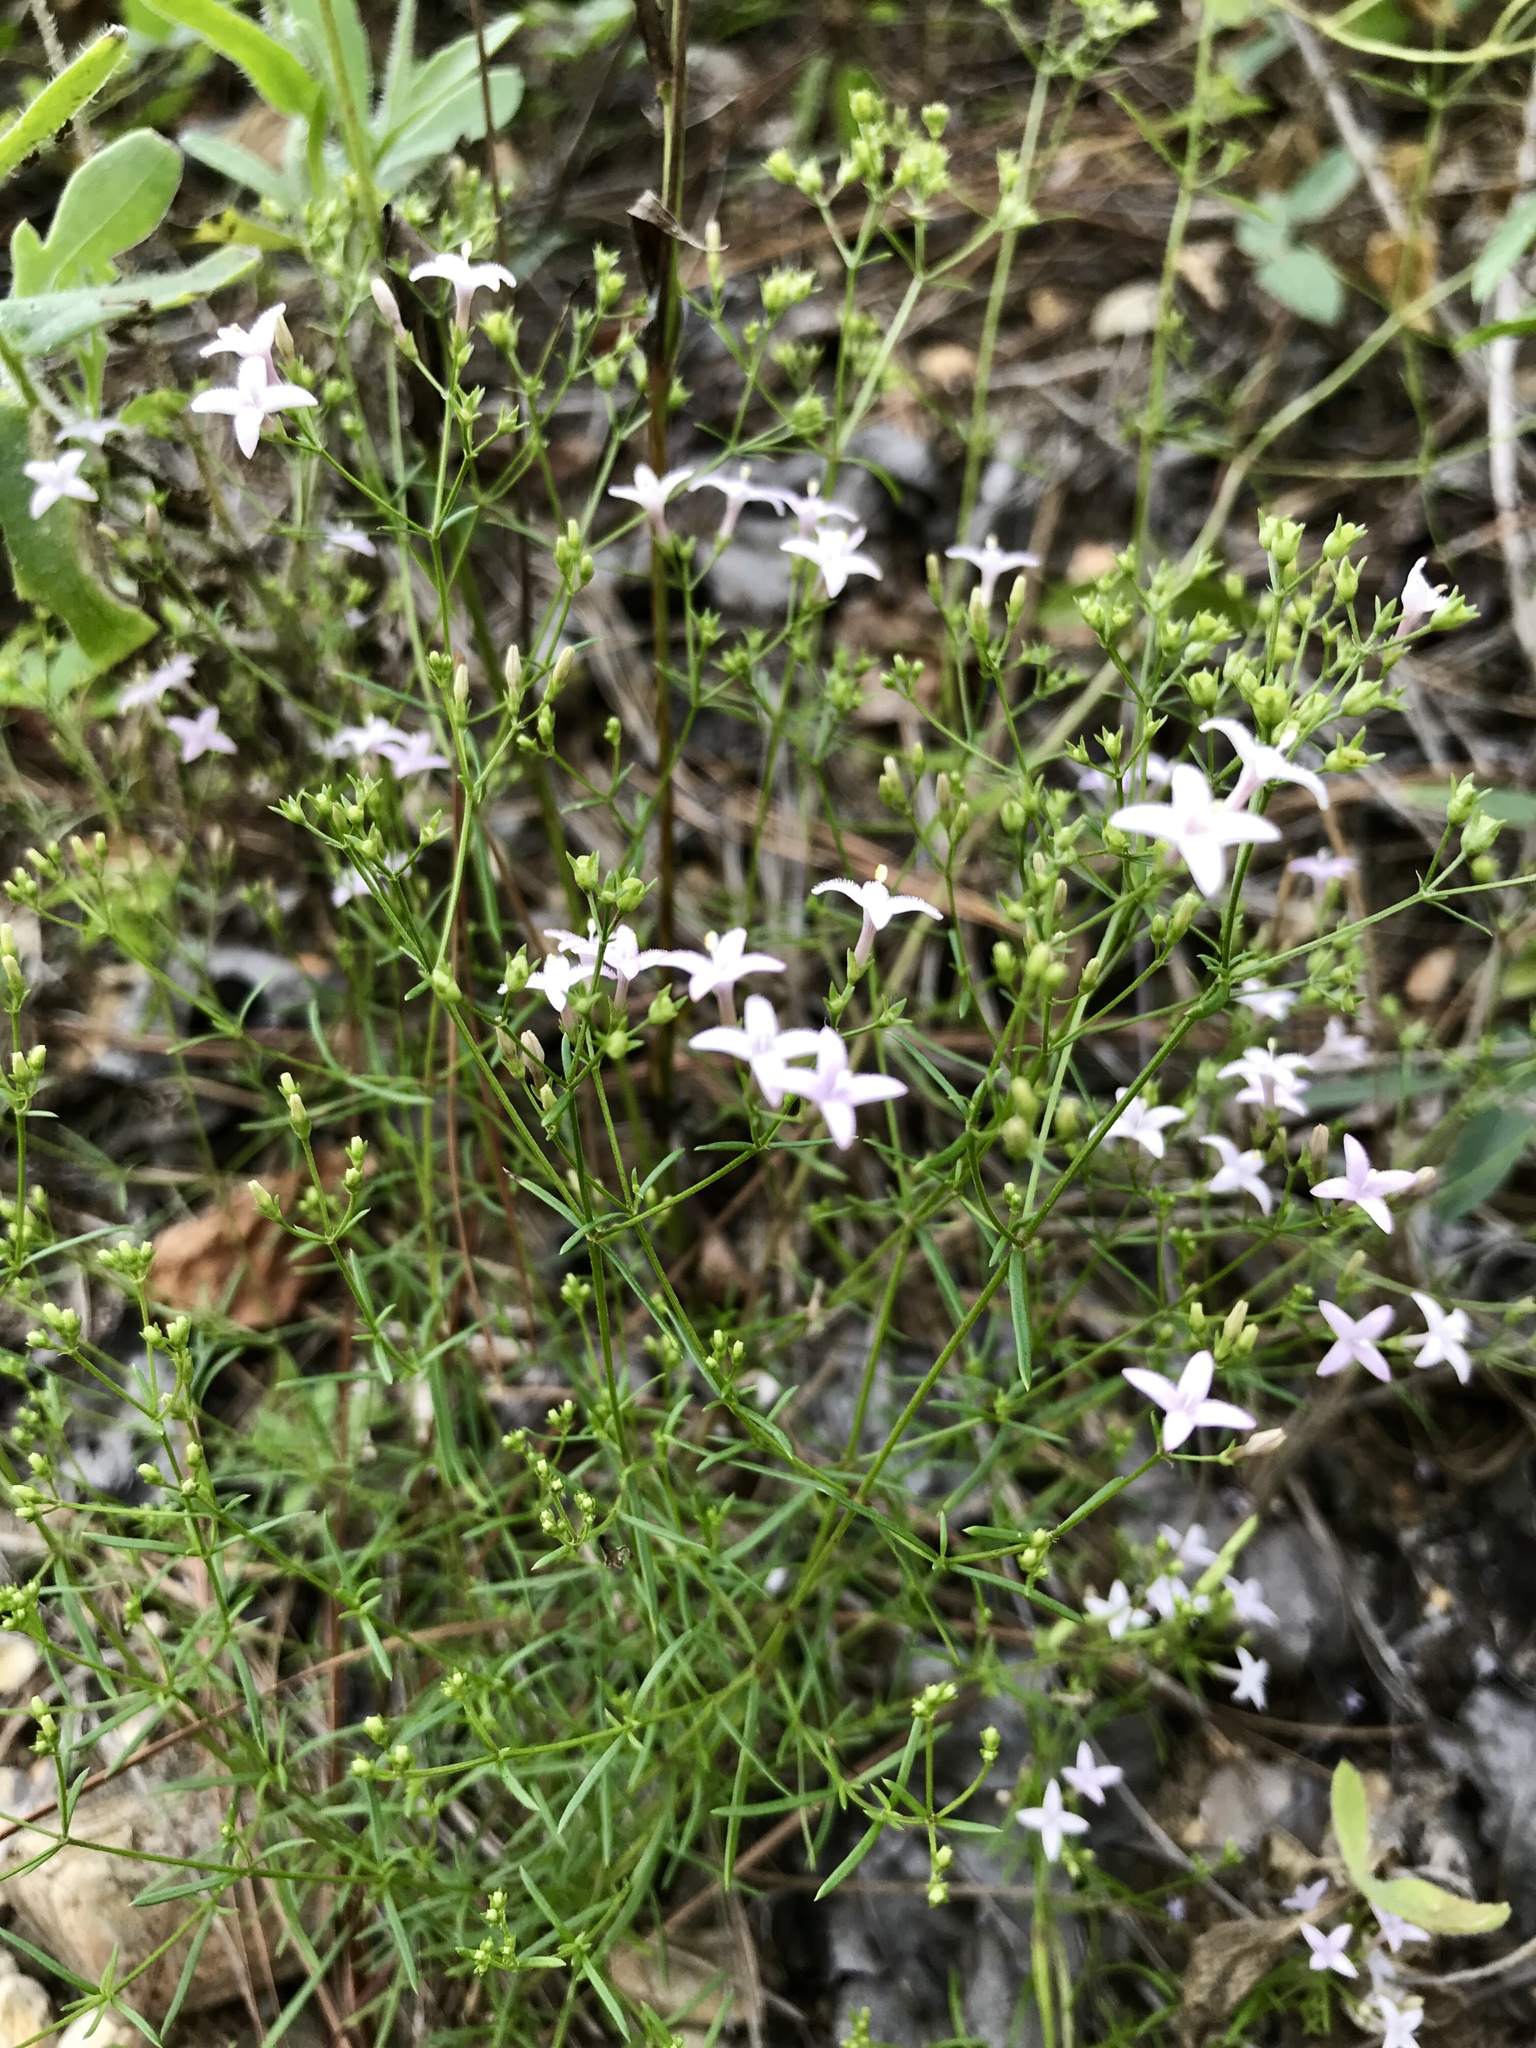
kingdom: Plantae
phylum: Tracheophyta
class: Magnoliopsida
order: Gentianales
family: Rubiaceae
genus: Stenaria
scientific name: Stenaria nigricans
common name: Diamondflowers
